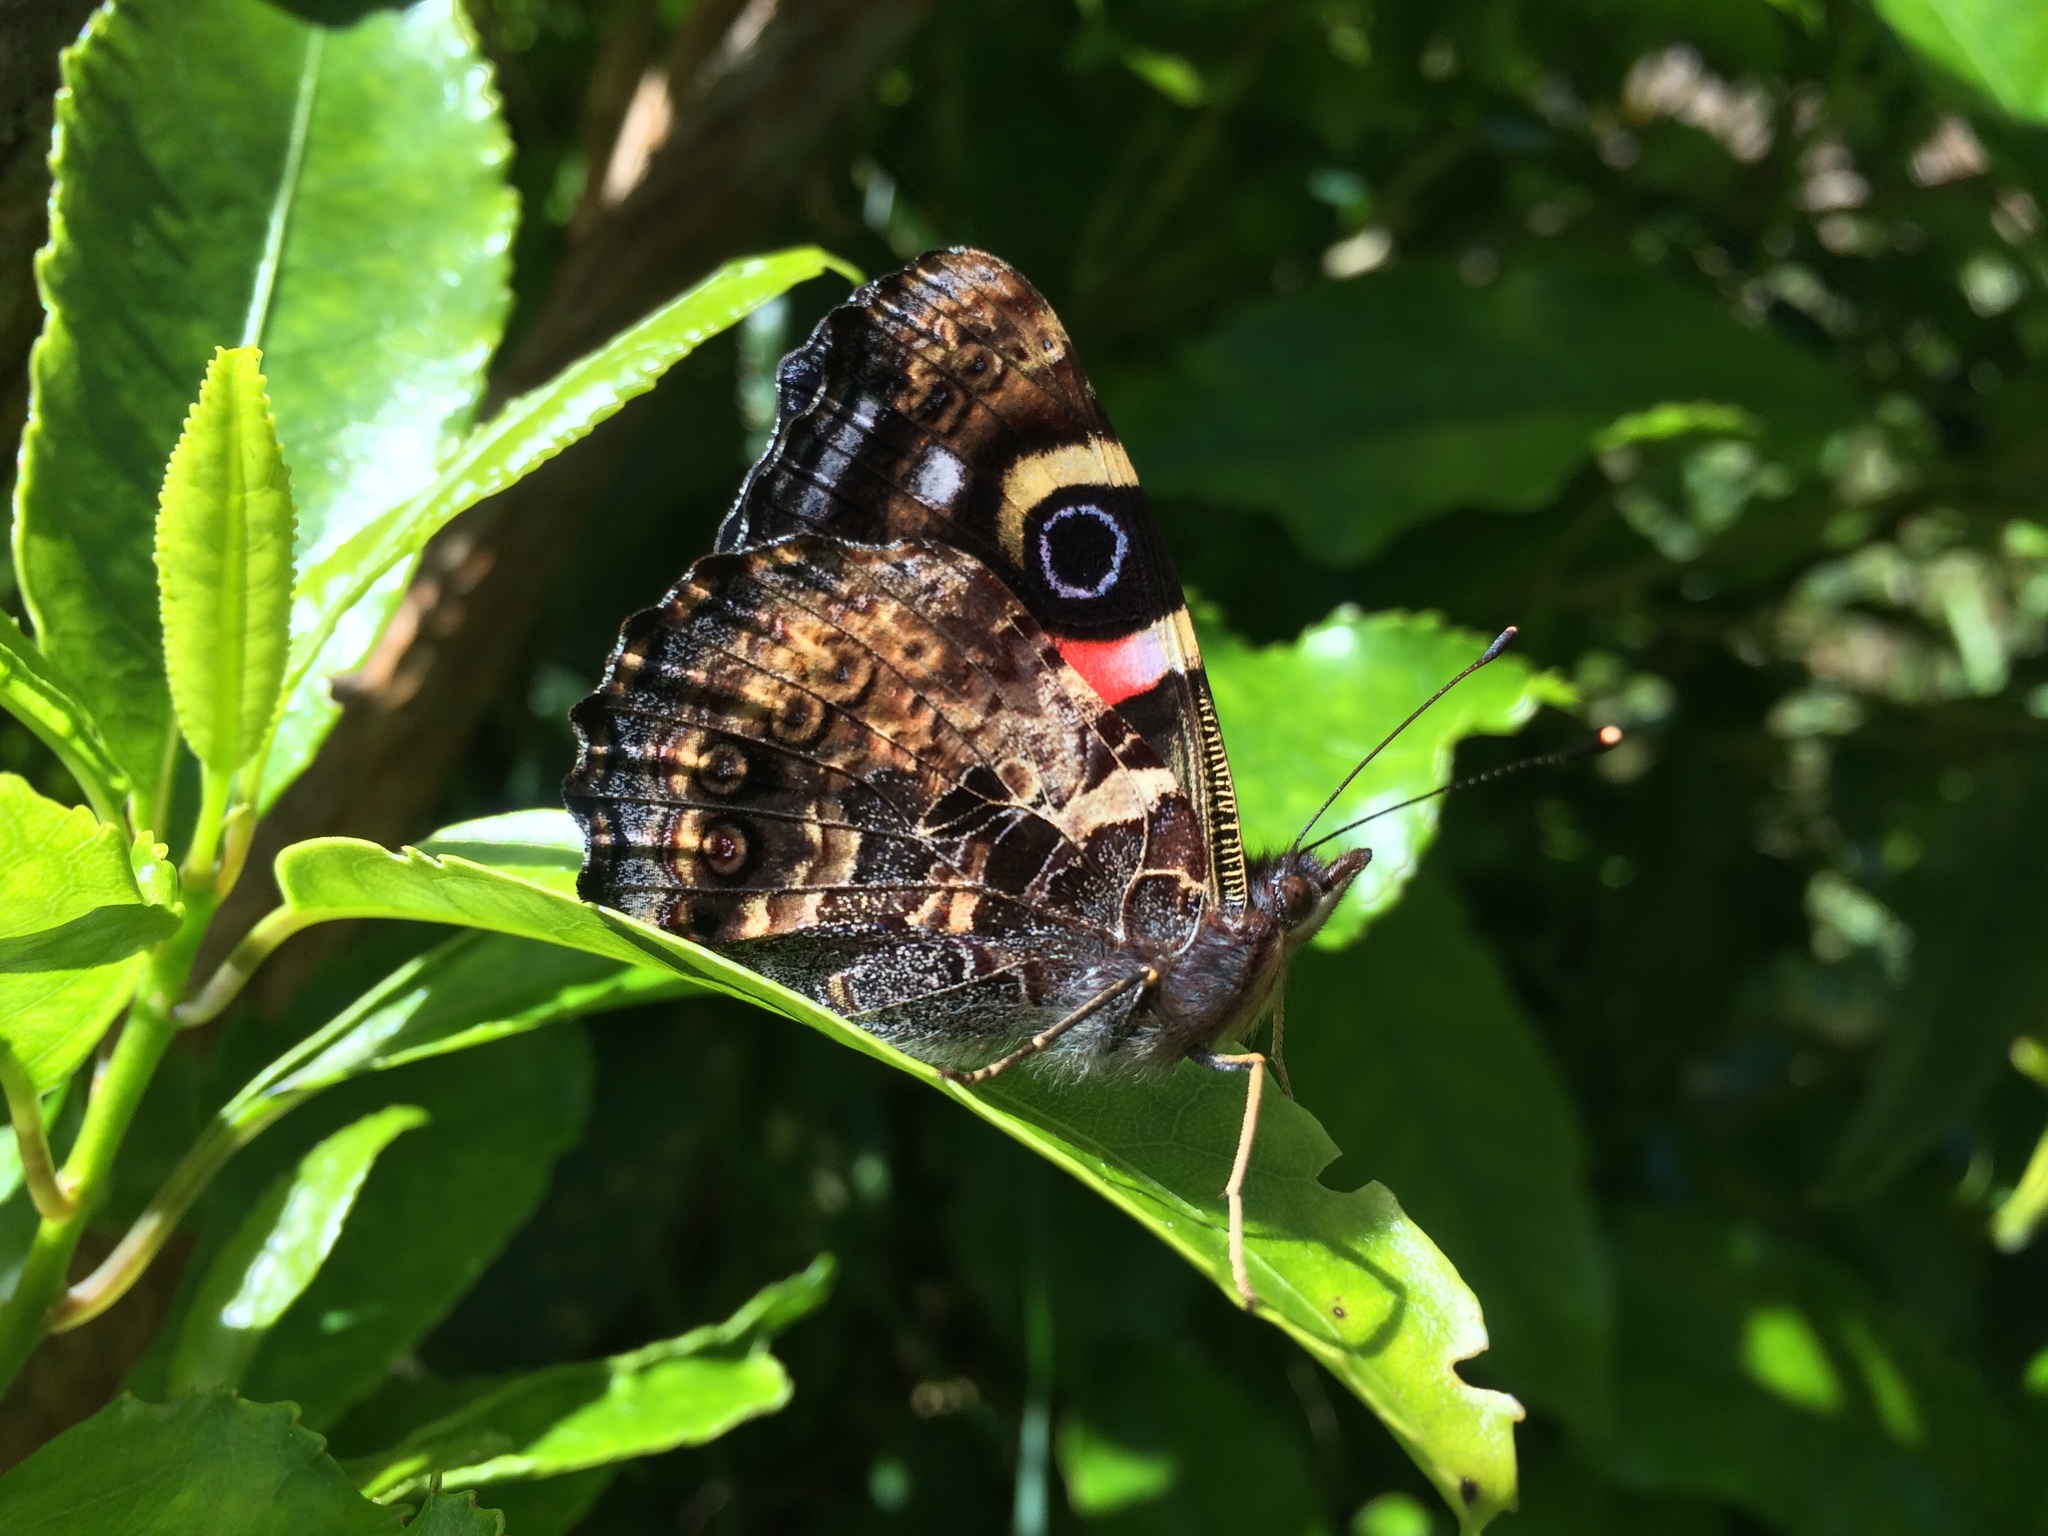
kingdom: Animalia
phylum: Arthropoda
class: Insecta
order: Lepidoptera
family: Nymphalidae
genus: Vanessa
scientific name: Vanessa gonerilla
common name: New zealand red admiral
